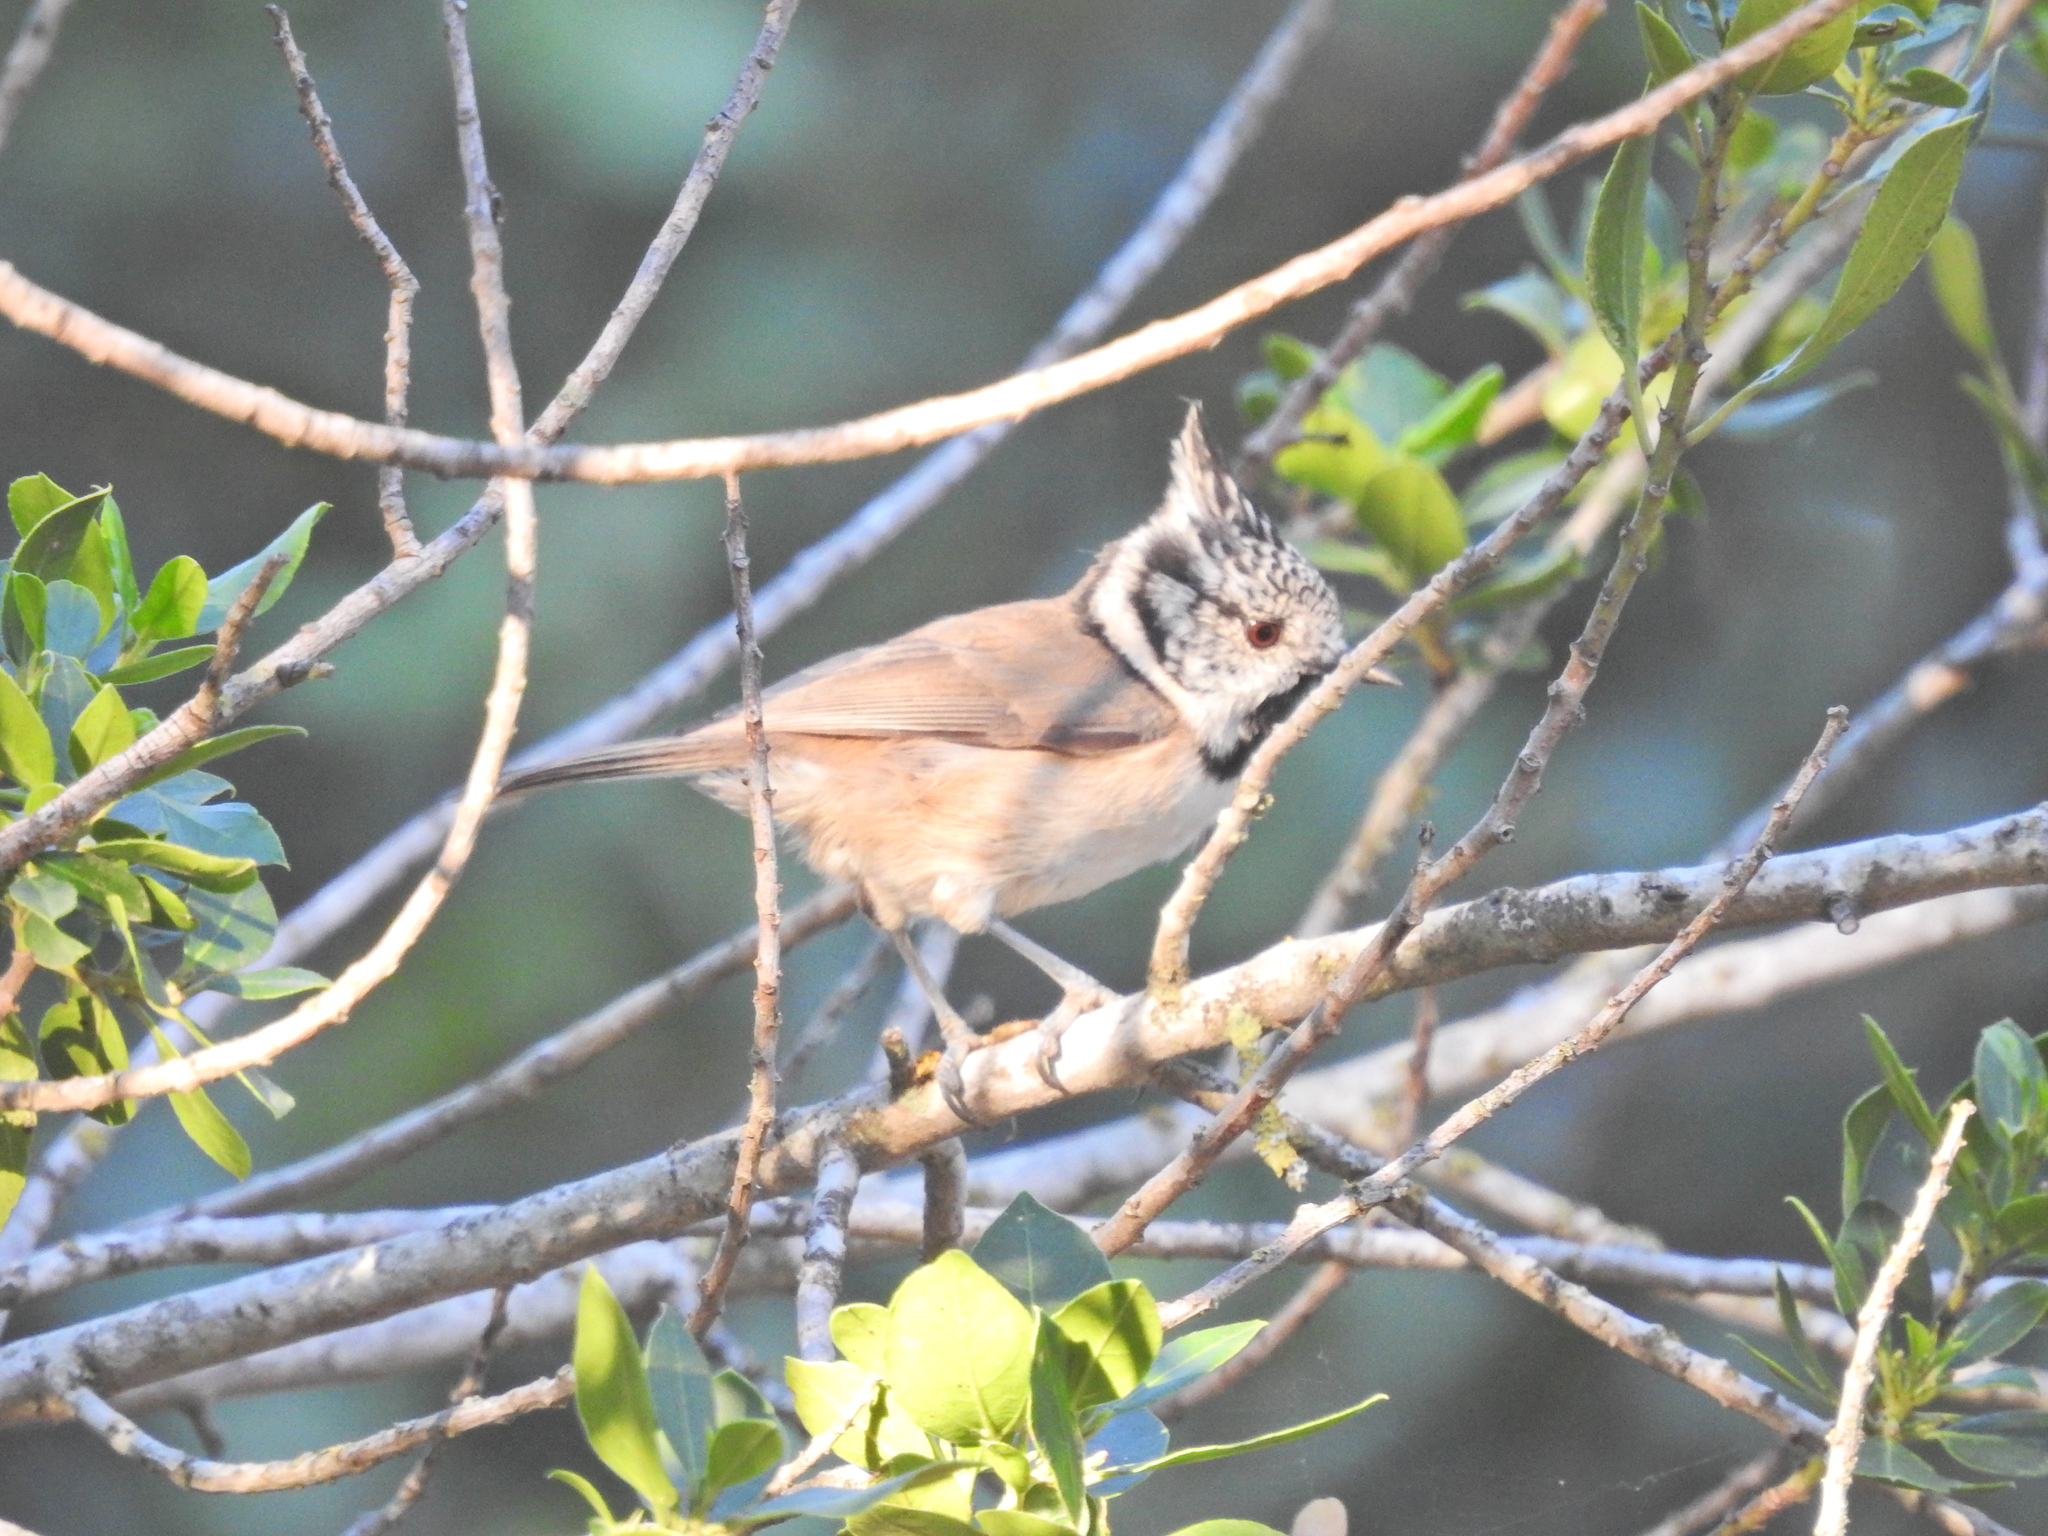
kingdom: Animalia
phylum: Chordata
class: Aves
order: Passeriformes
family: Paridae
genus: Lophophanes
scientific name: Lophophanes cristatus
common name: European crested tit
